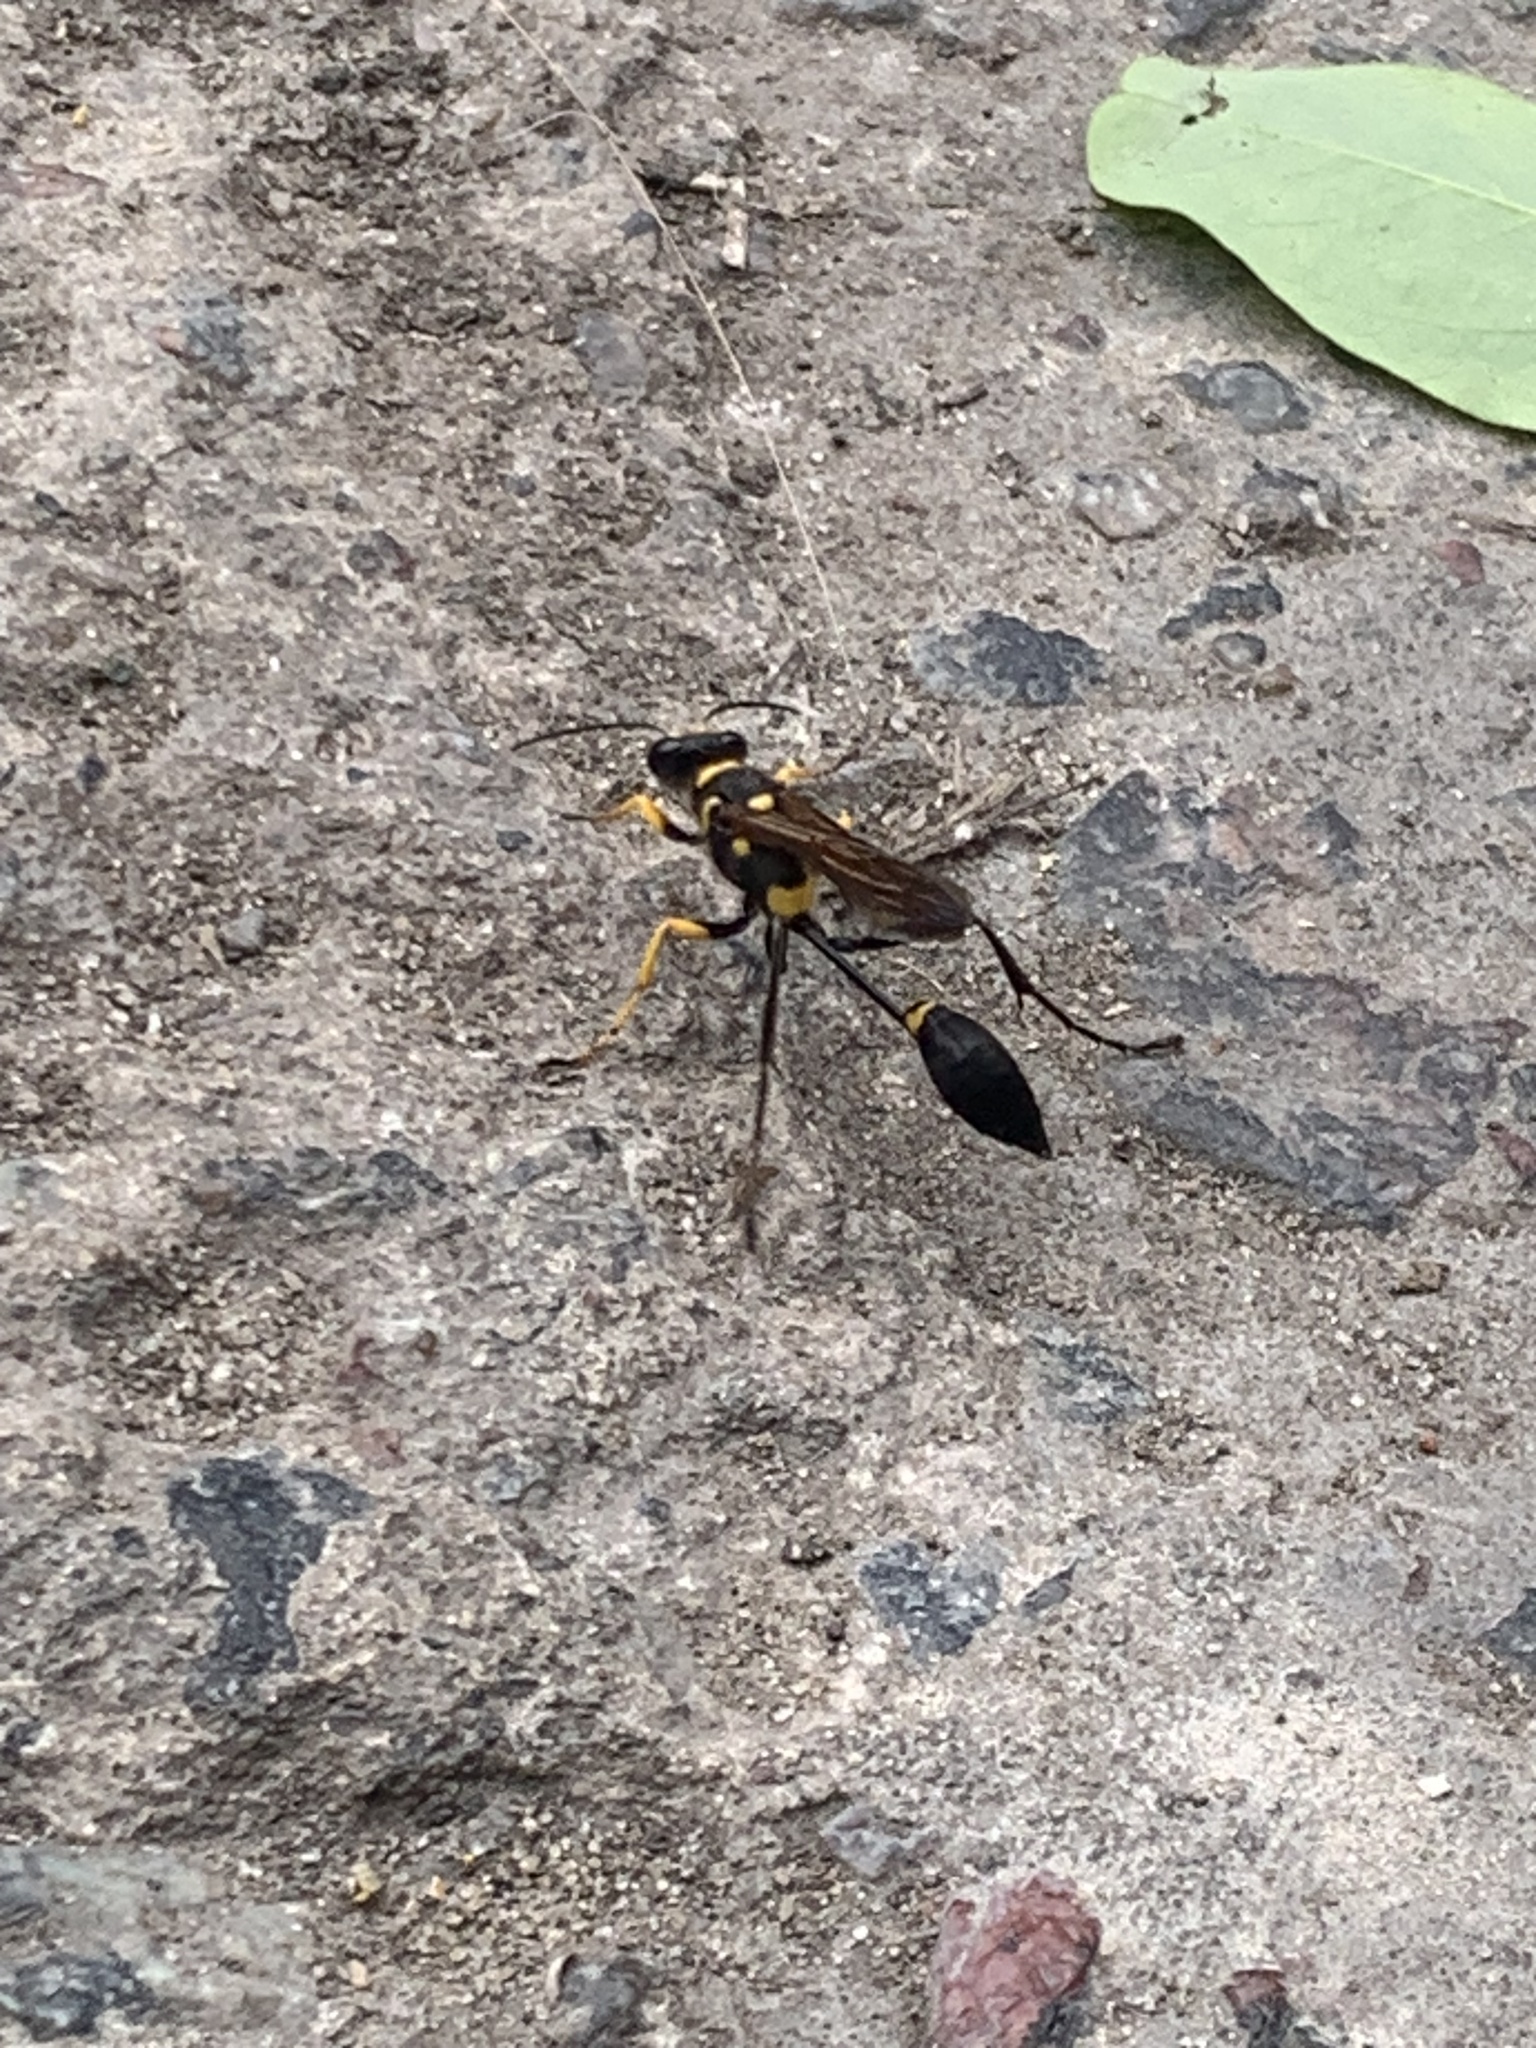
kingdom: Animalia
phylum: Arthropoda
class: Insecta
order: Hymenoptera
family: Sphecidae
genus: Sceliphron
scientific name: Sceliphron asiaticum
